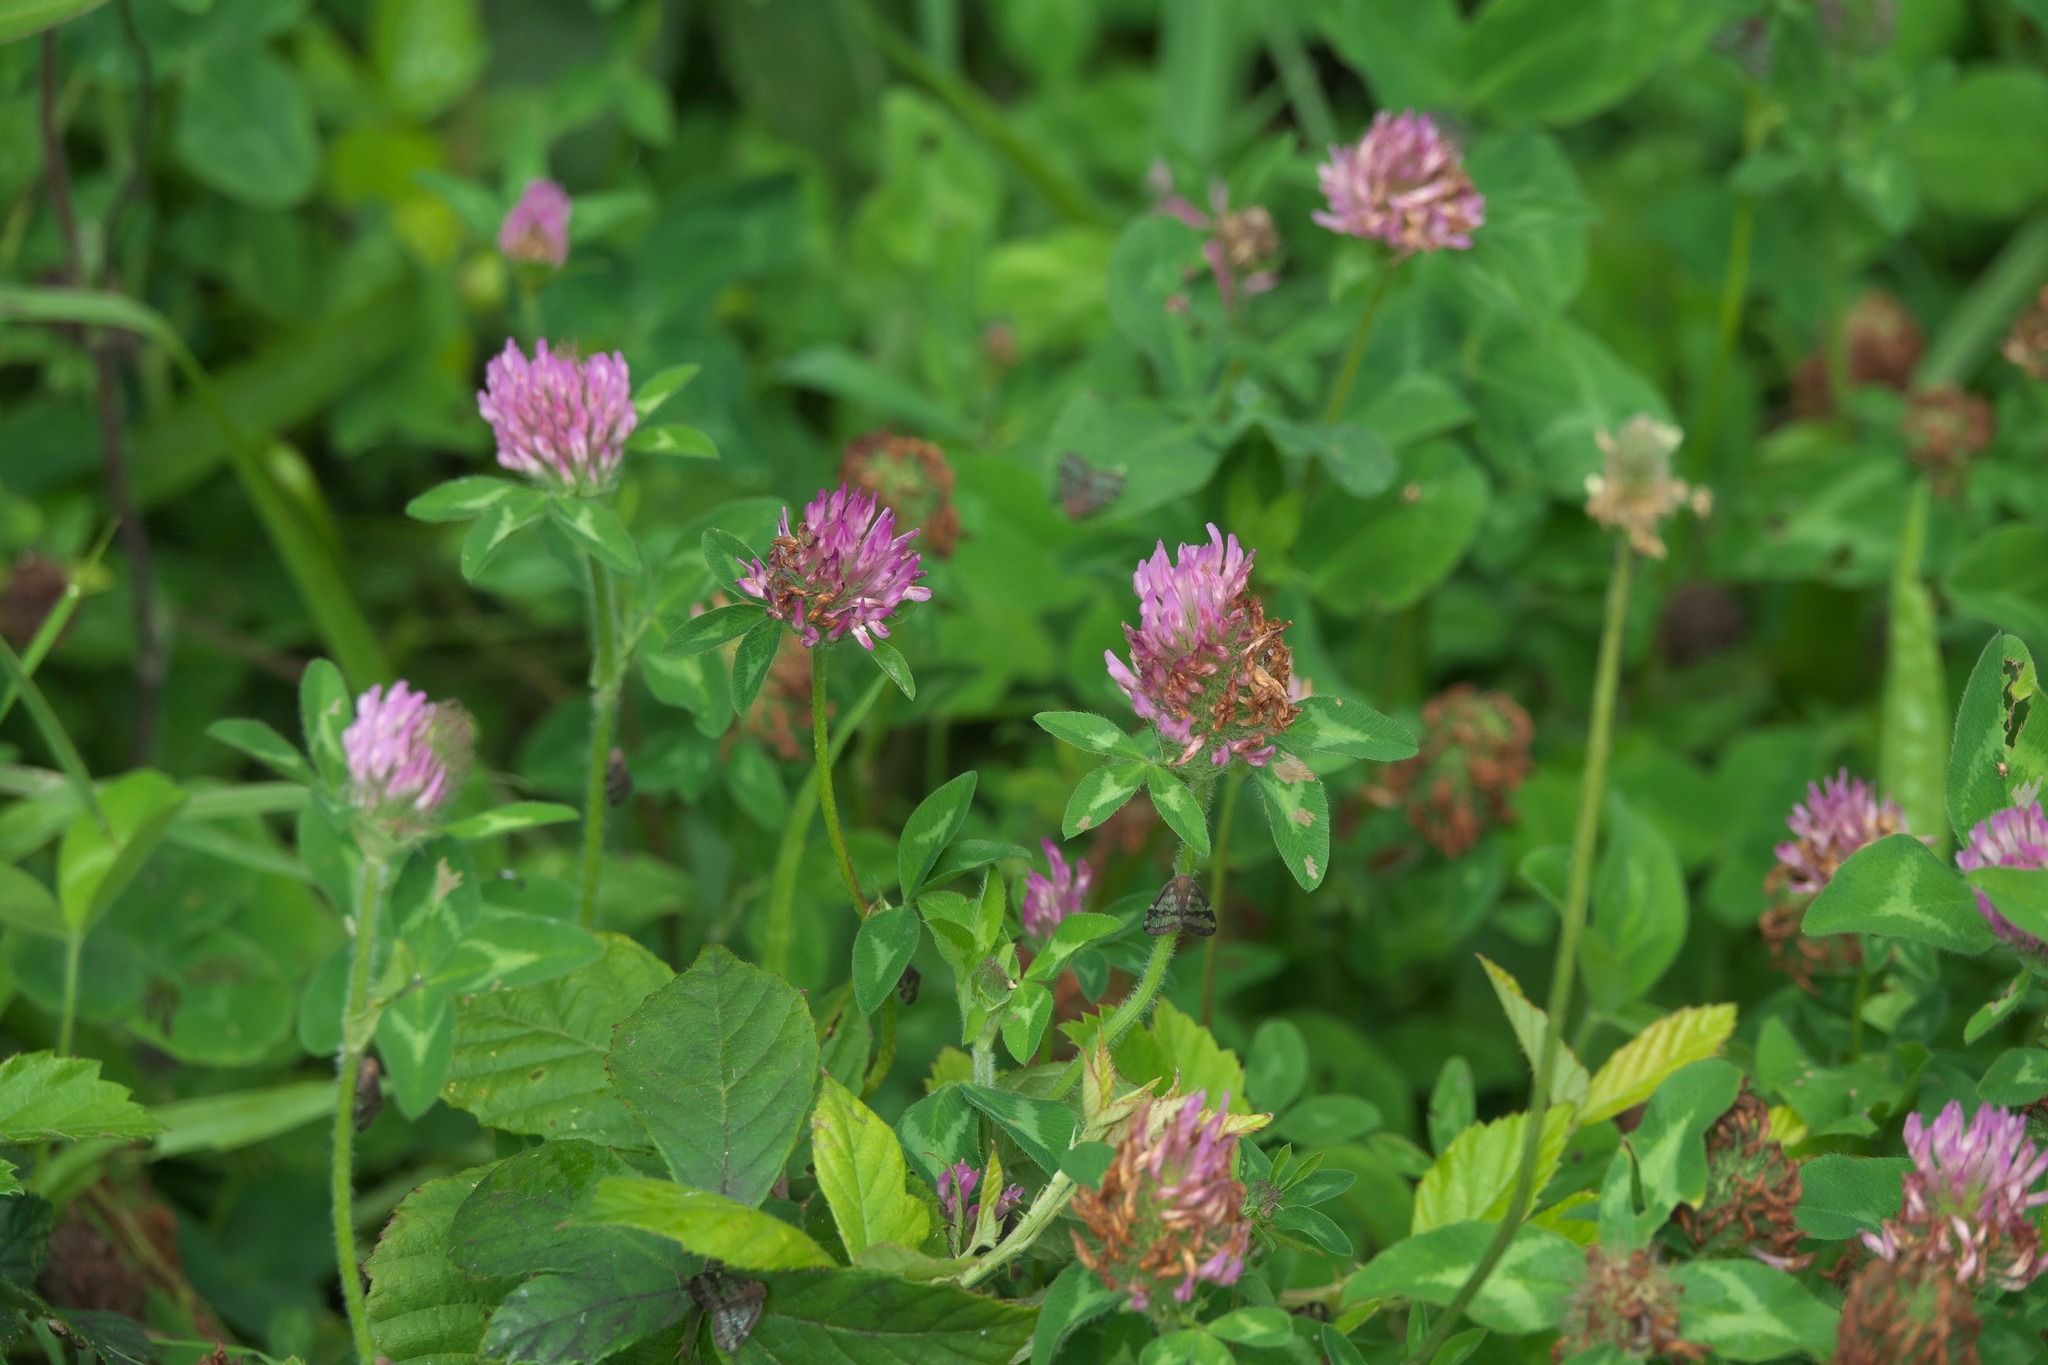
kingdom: Plantae
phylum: Tracheophyta
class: Magnoliopsida
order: Fabales
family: Fabaceae
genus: Trifolium
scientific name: Trifolium pratense
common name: Red clover
